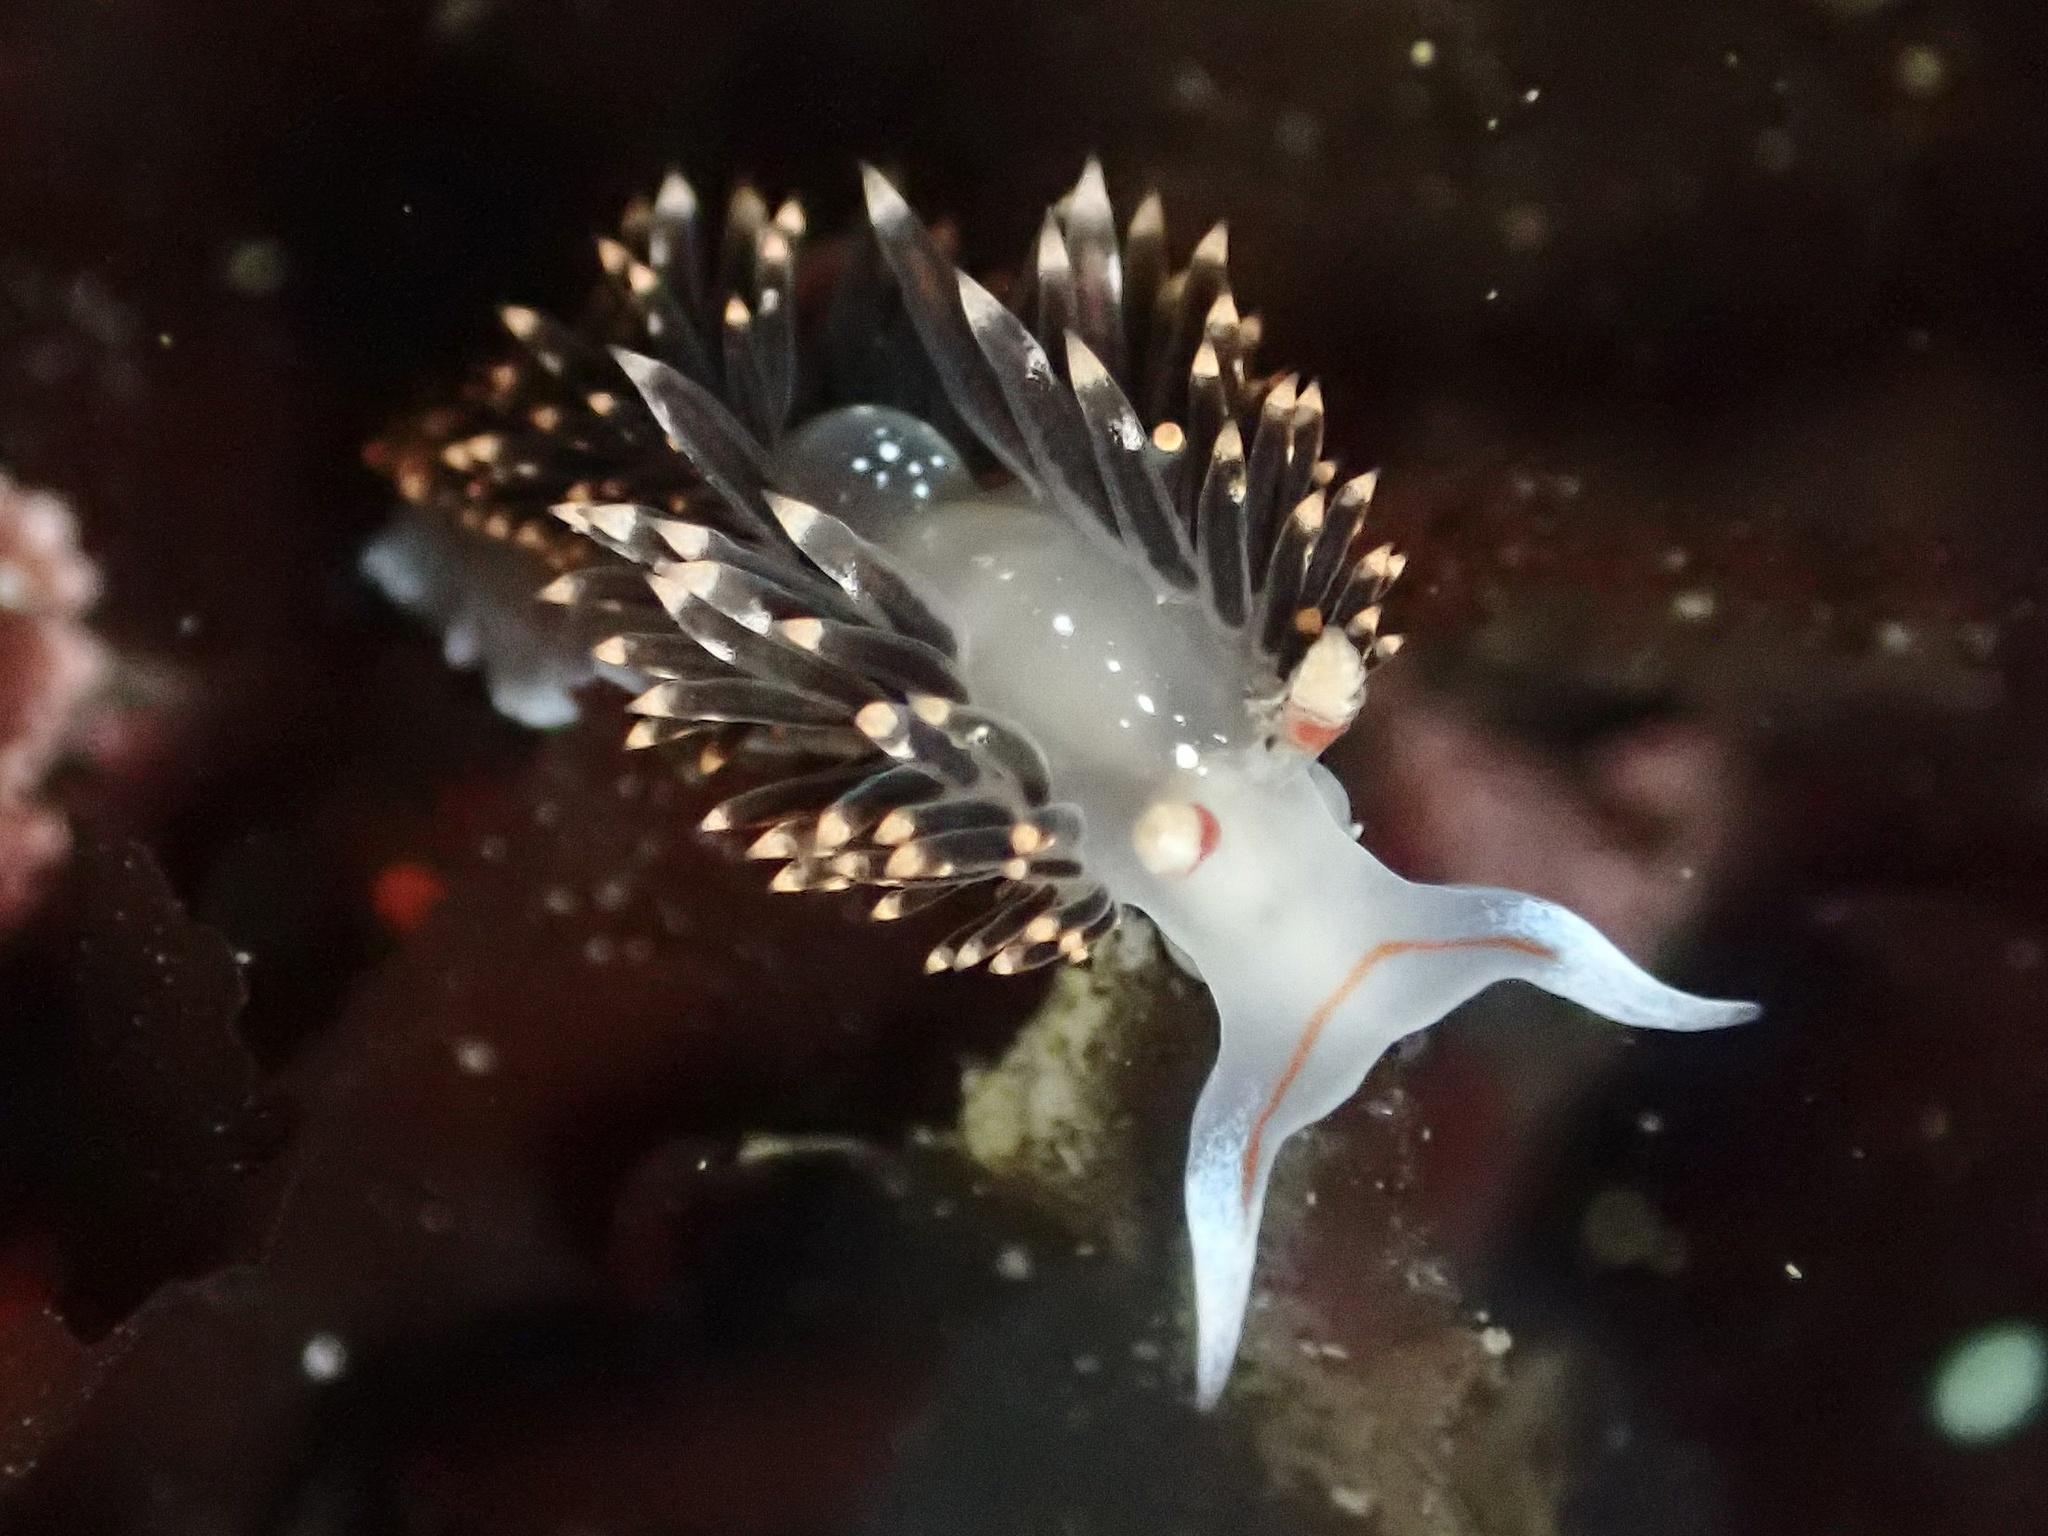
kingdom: Animalia
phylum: Mollusca
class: Gastropoda
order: Nudibranchia
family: Facelinidae
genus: Phidiana
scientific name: Phidiana hiltoni
